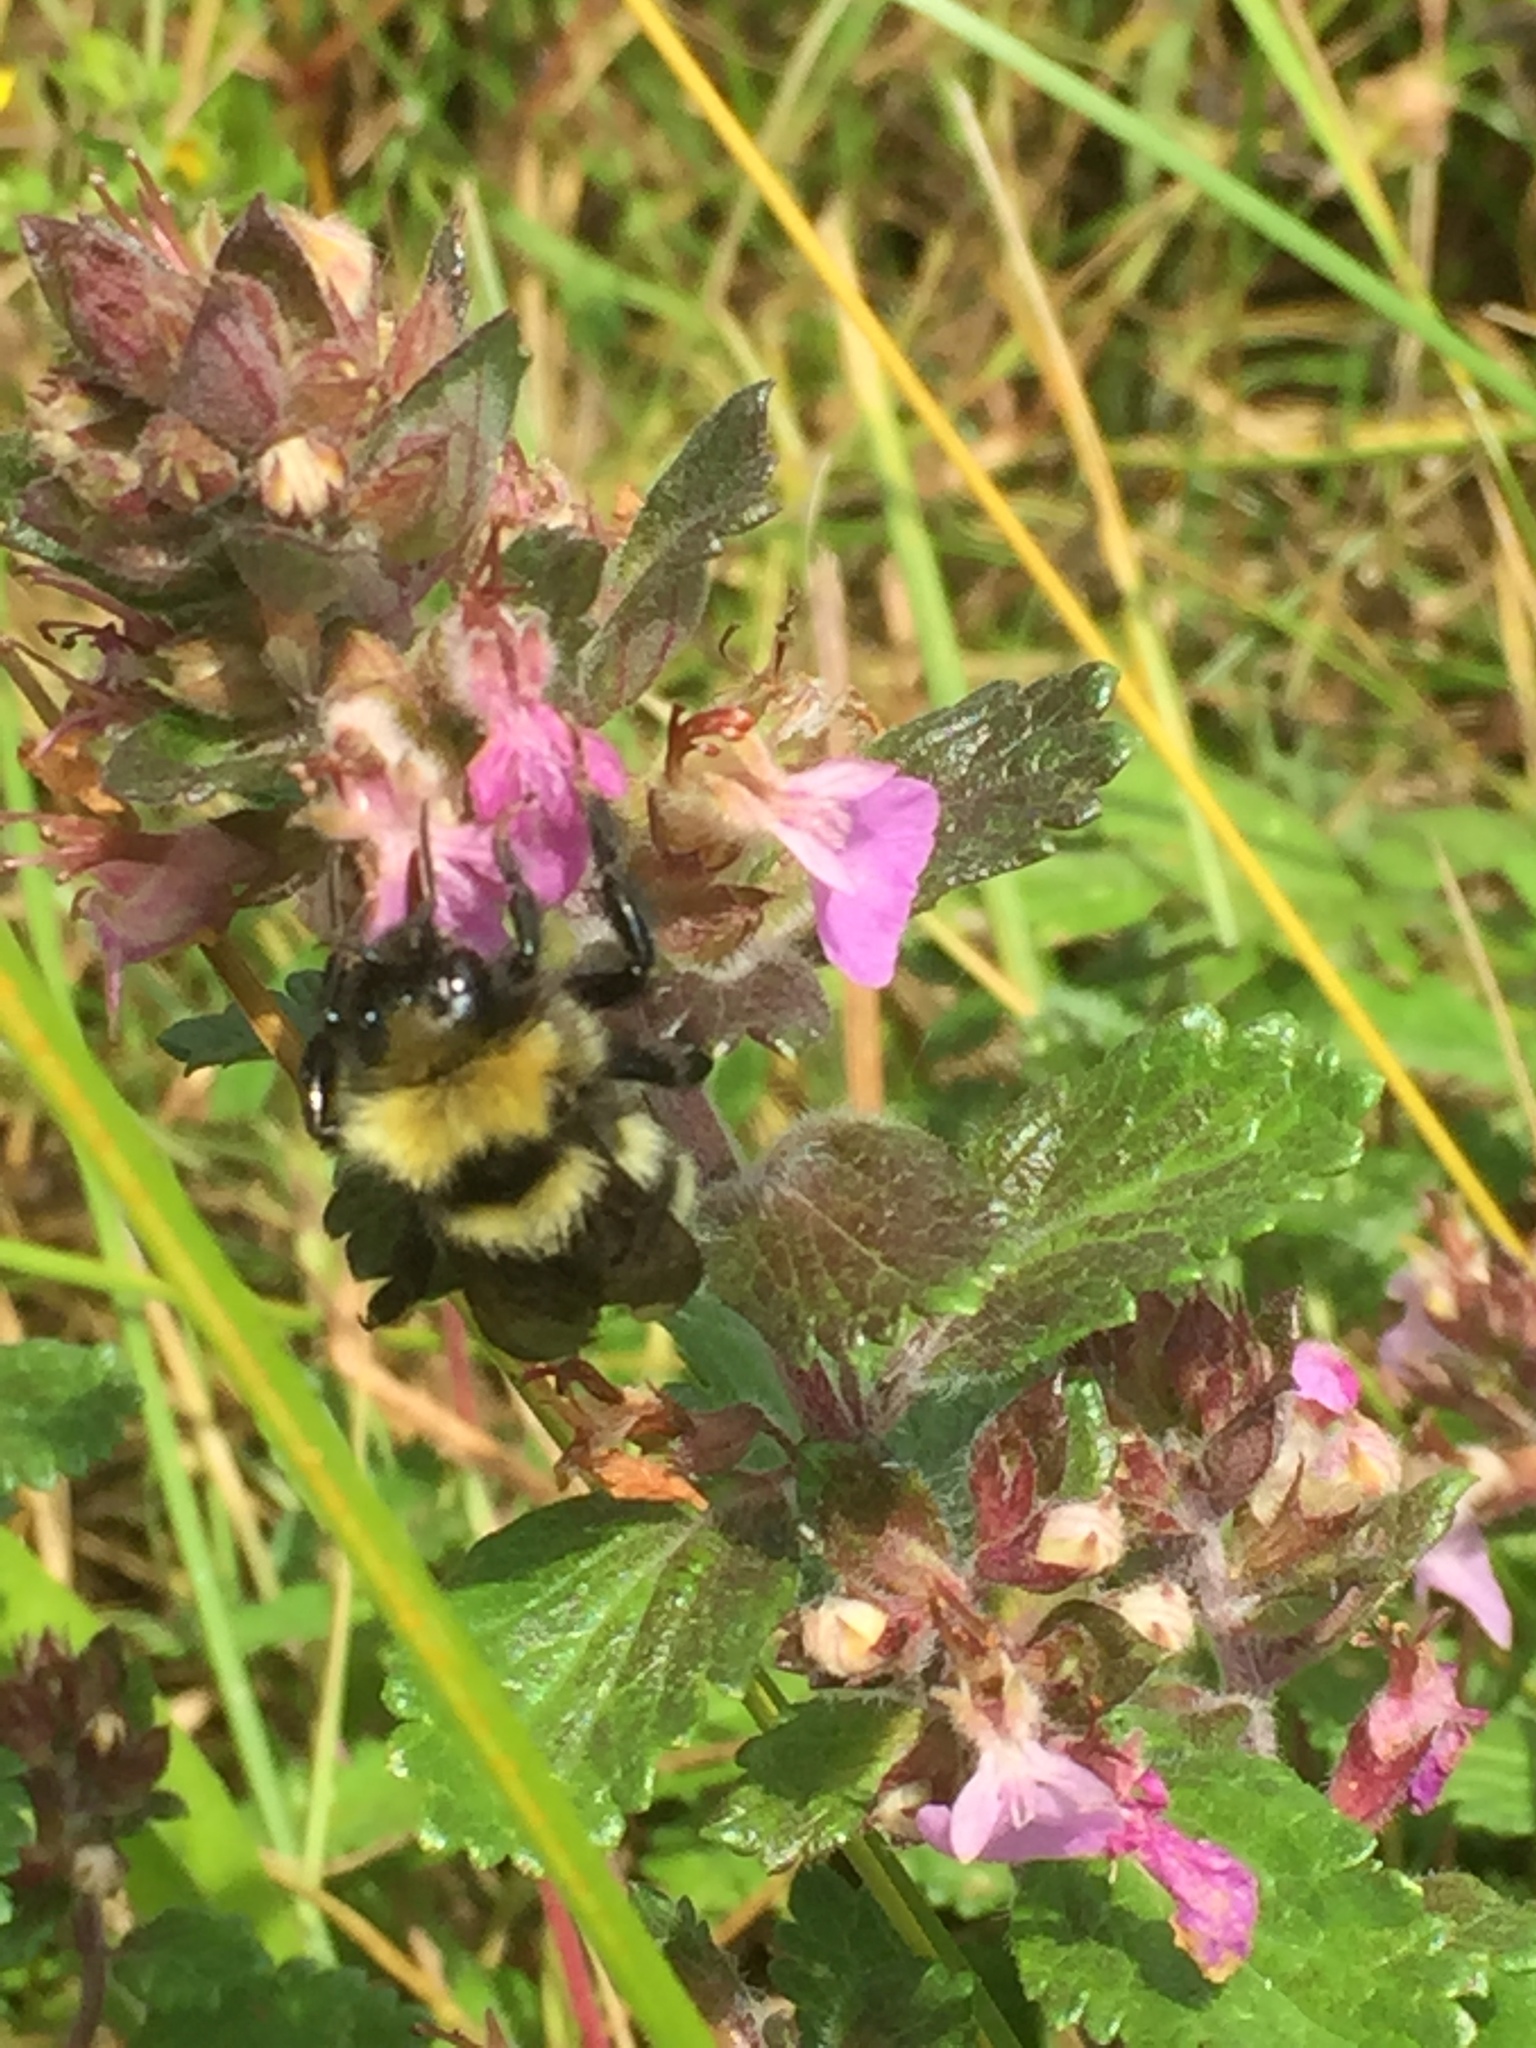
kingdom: Plantae
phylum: Tracheophyta
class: Magnoliopsida
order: Lamiales
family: Lamiaceae
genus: Teucrium
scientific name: Teucrium chamaedrys
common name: Wall germander
